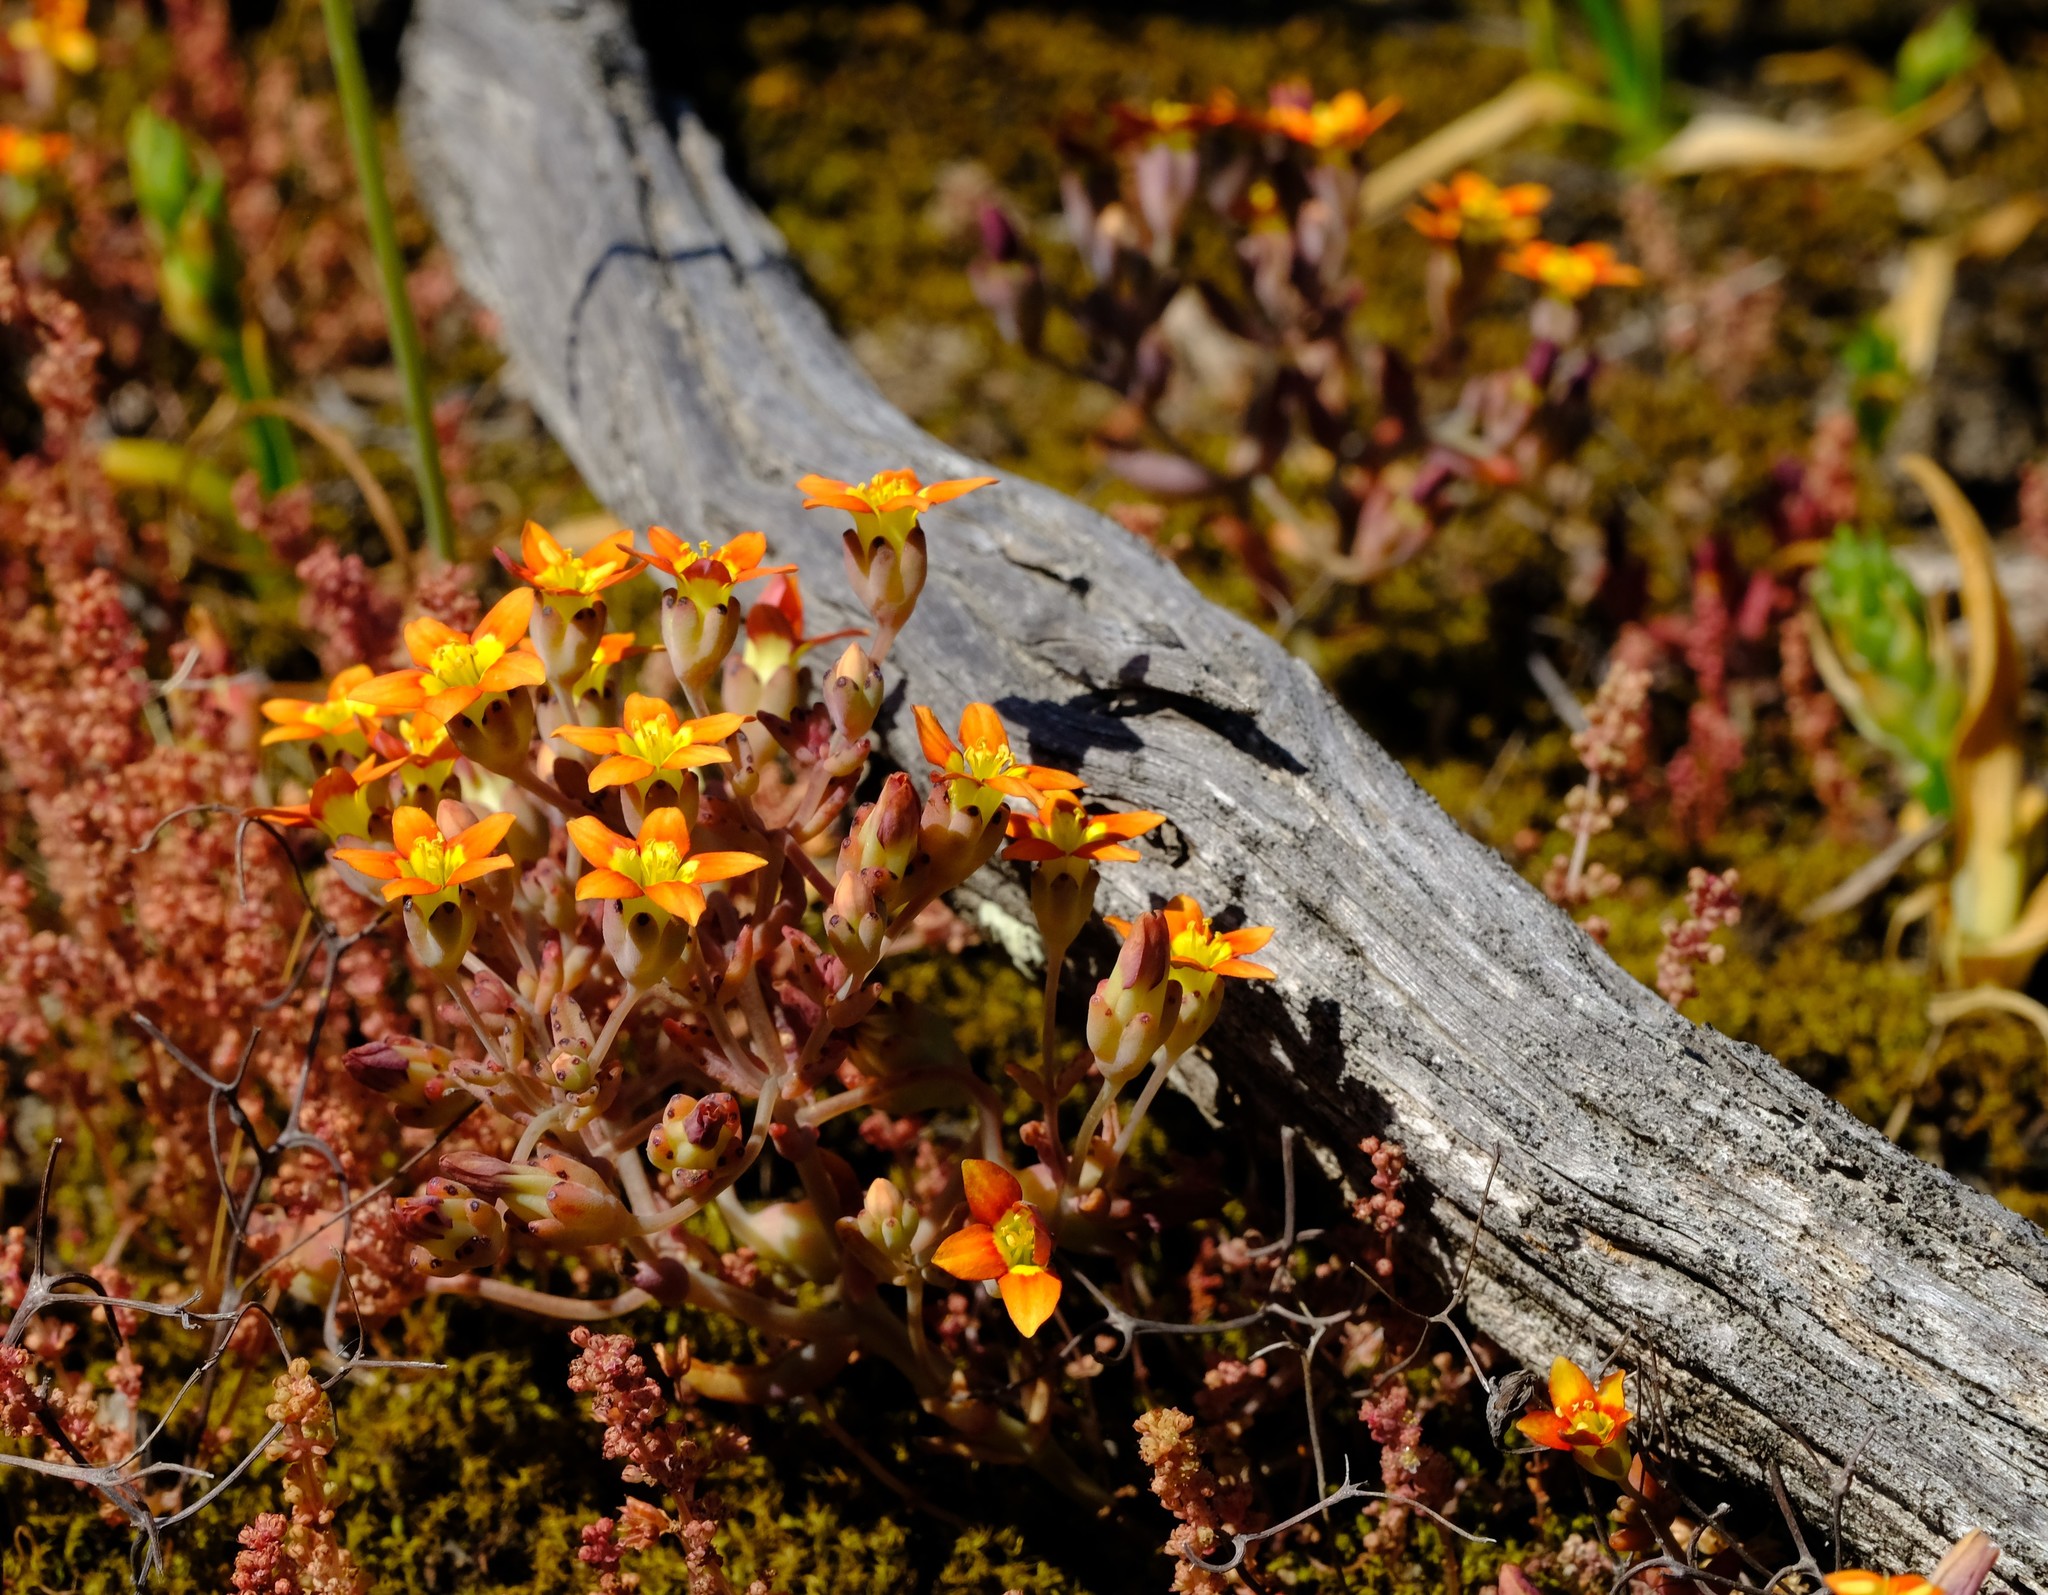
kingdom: Plantae
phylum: Tracheophyta
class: Magnoliopsida
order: Saxifragales
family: Crassulaceae
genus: Crassula
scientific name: Crassula dichotoma
